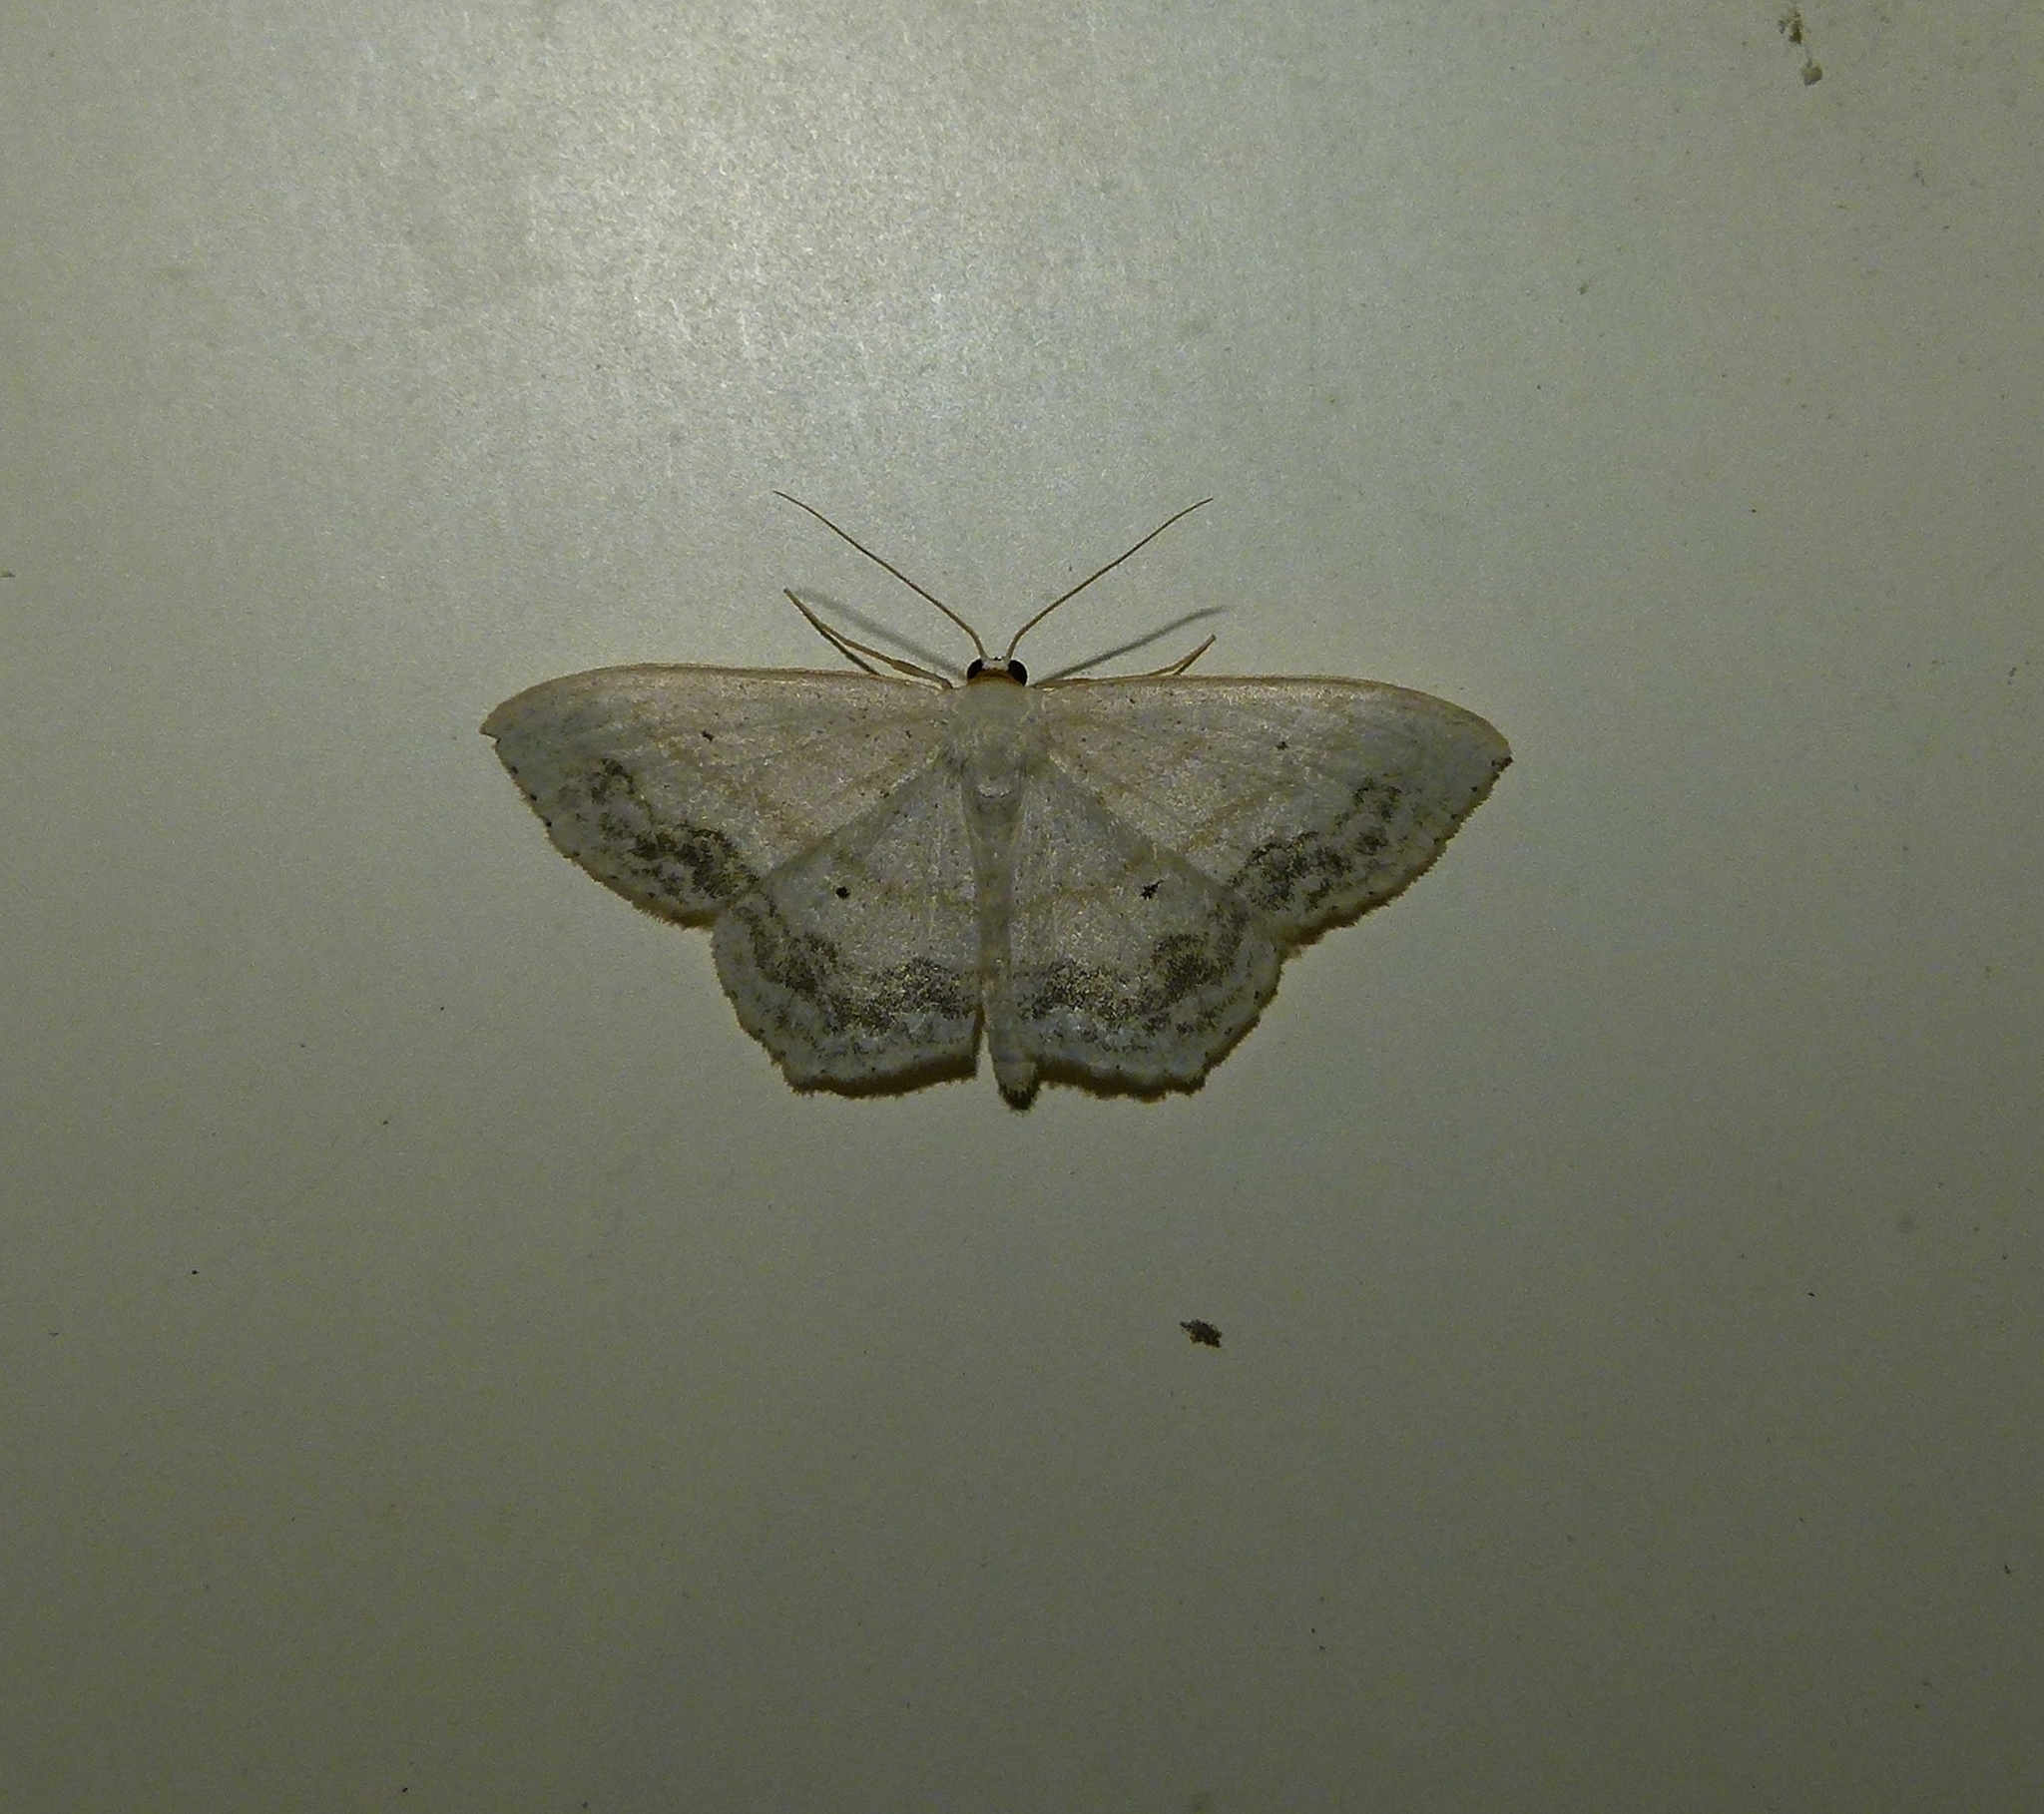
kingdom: Animalia
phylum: Arthropoda
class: Insecta
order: Lepidoptera
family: Geometridae
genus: Scopula
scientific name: Scopula limboundata
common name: Large lace border
